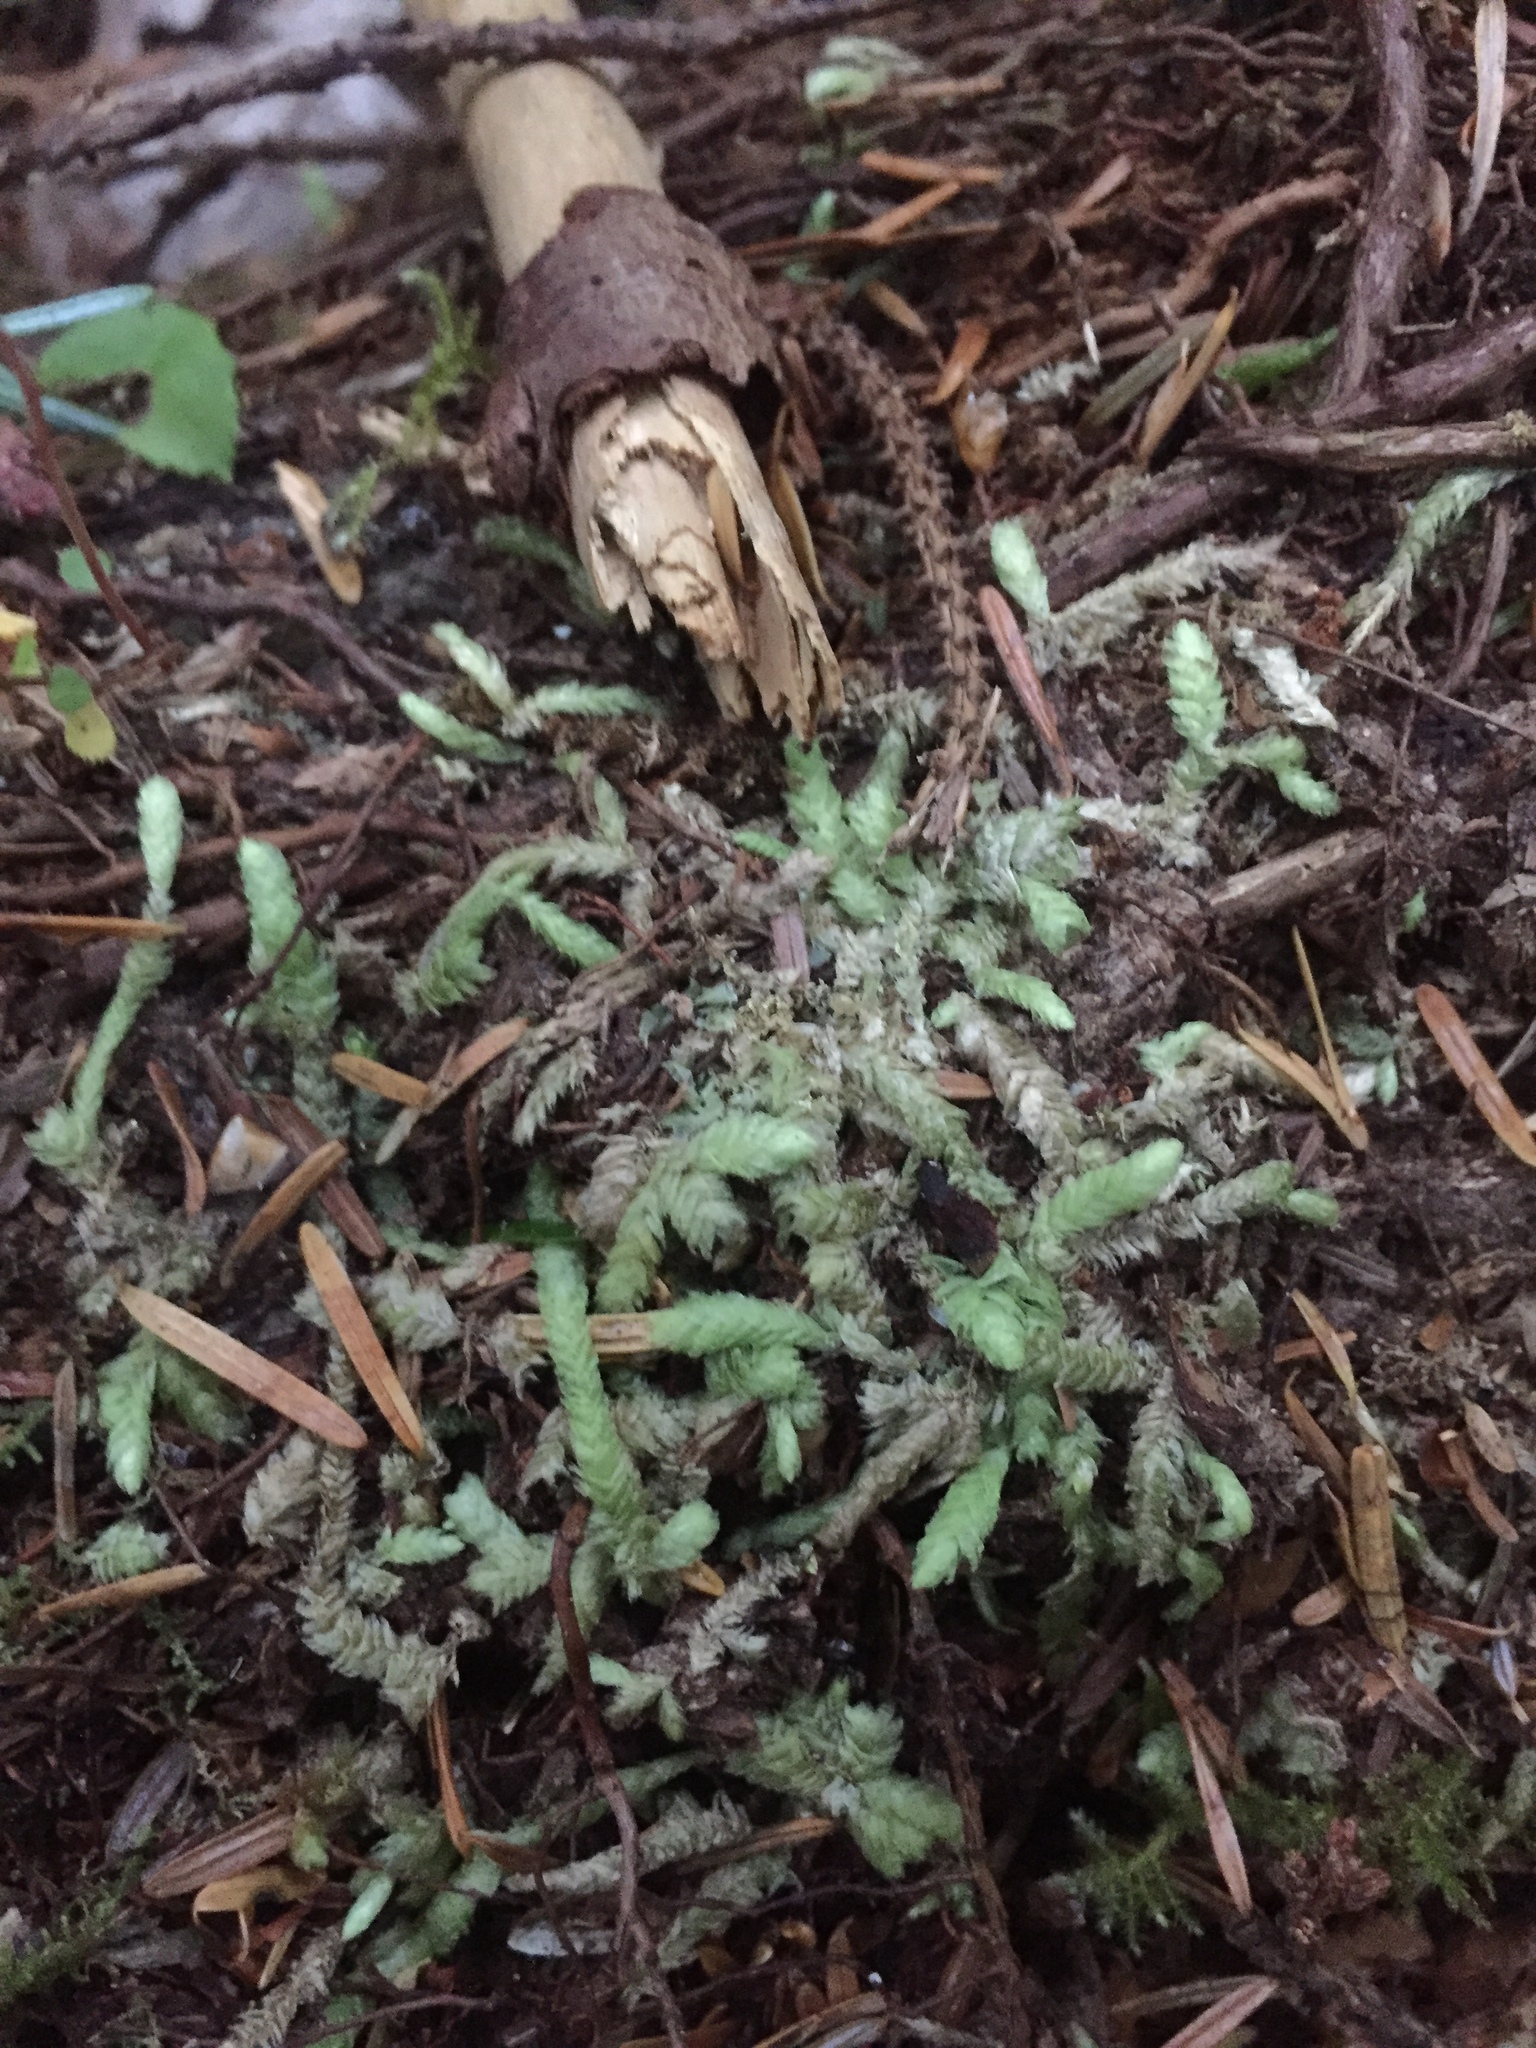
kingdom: Plantae
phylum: Bryophyta
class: Bryopsida
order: Hypnales
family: Plagiotheciaceae
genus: Plagiothecium
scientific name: Plagiothecium undulatum
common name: Waved silk-moss
